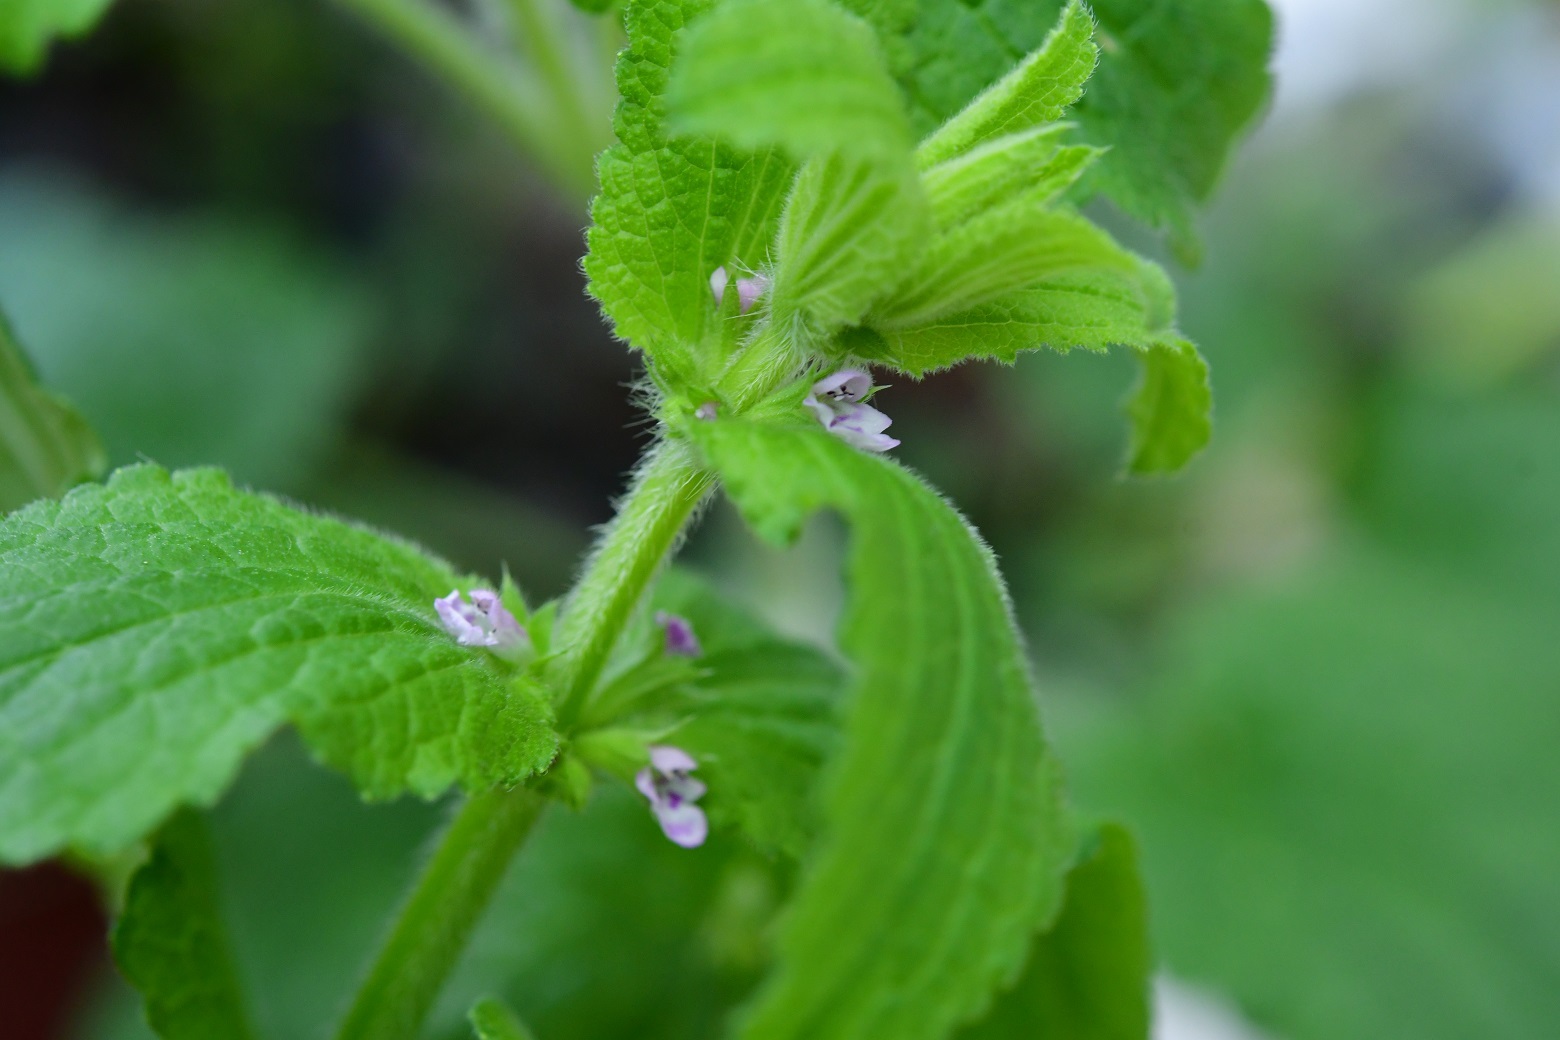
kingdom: Plantae
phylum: Tracheophyta
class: Magnoliopsida
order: Lamiales
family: Lamiaceae
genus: Stachys
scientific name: Stachys agraria
